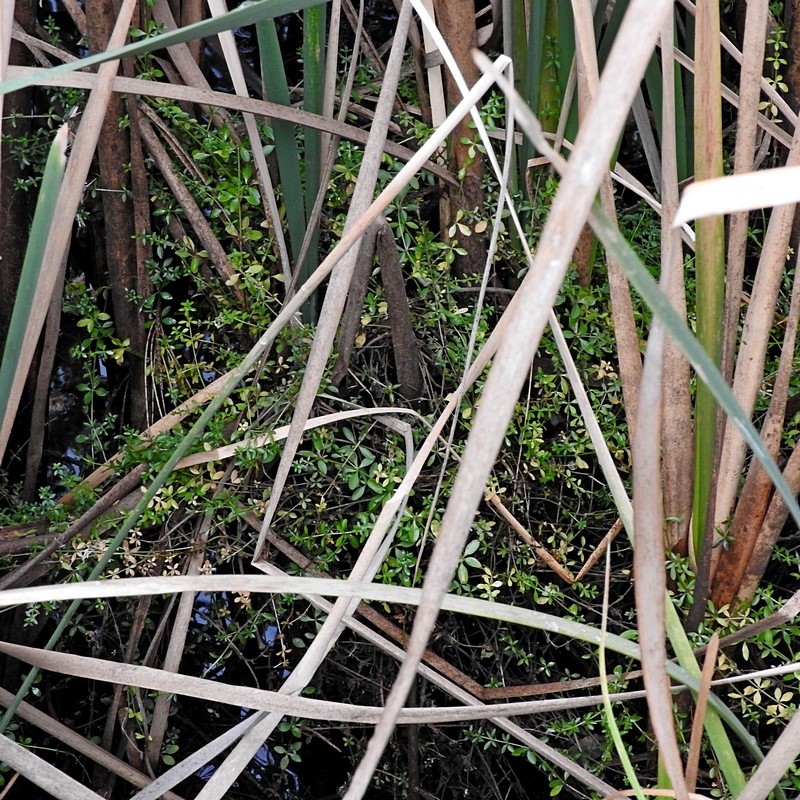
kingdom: Plantae
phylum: Tracheophyta
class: Magnoliopsida
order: Gentianales
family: Rubiaceae
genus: Galium
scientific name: Galium palustre
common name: Common marsh-bedstraw
